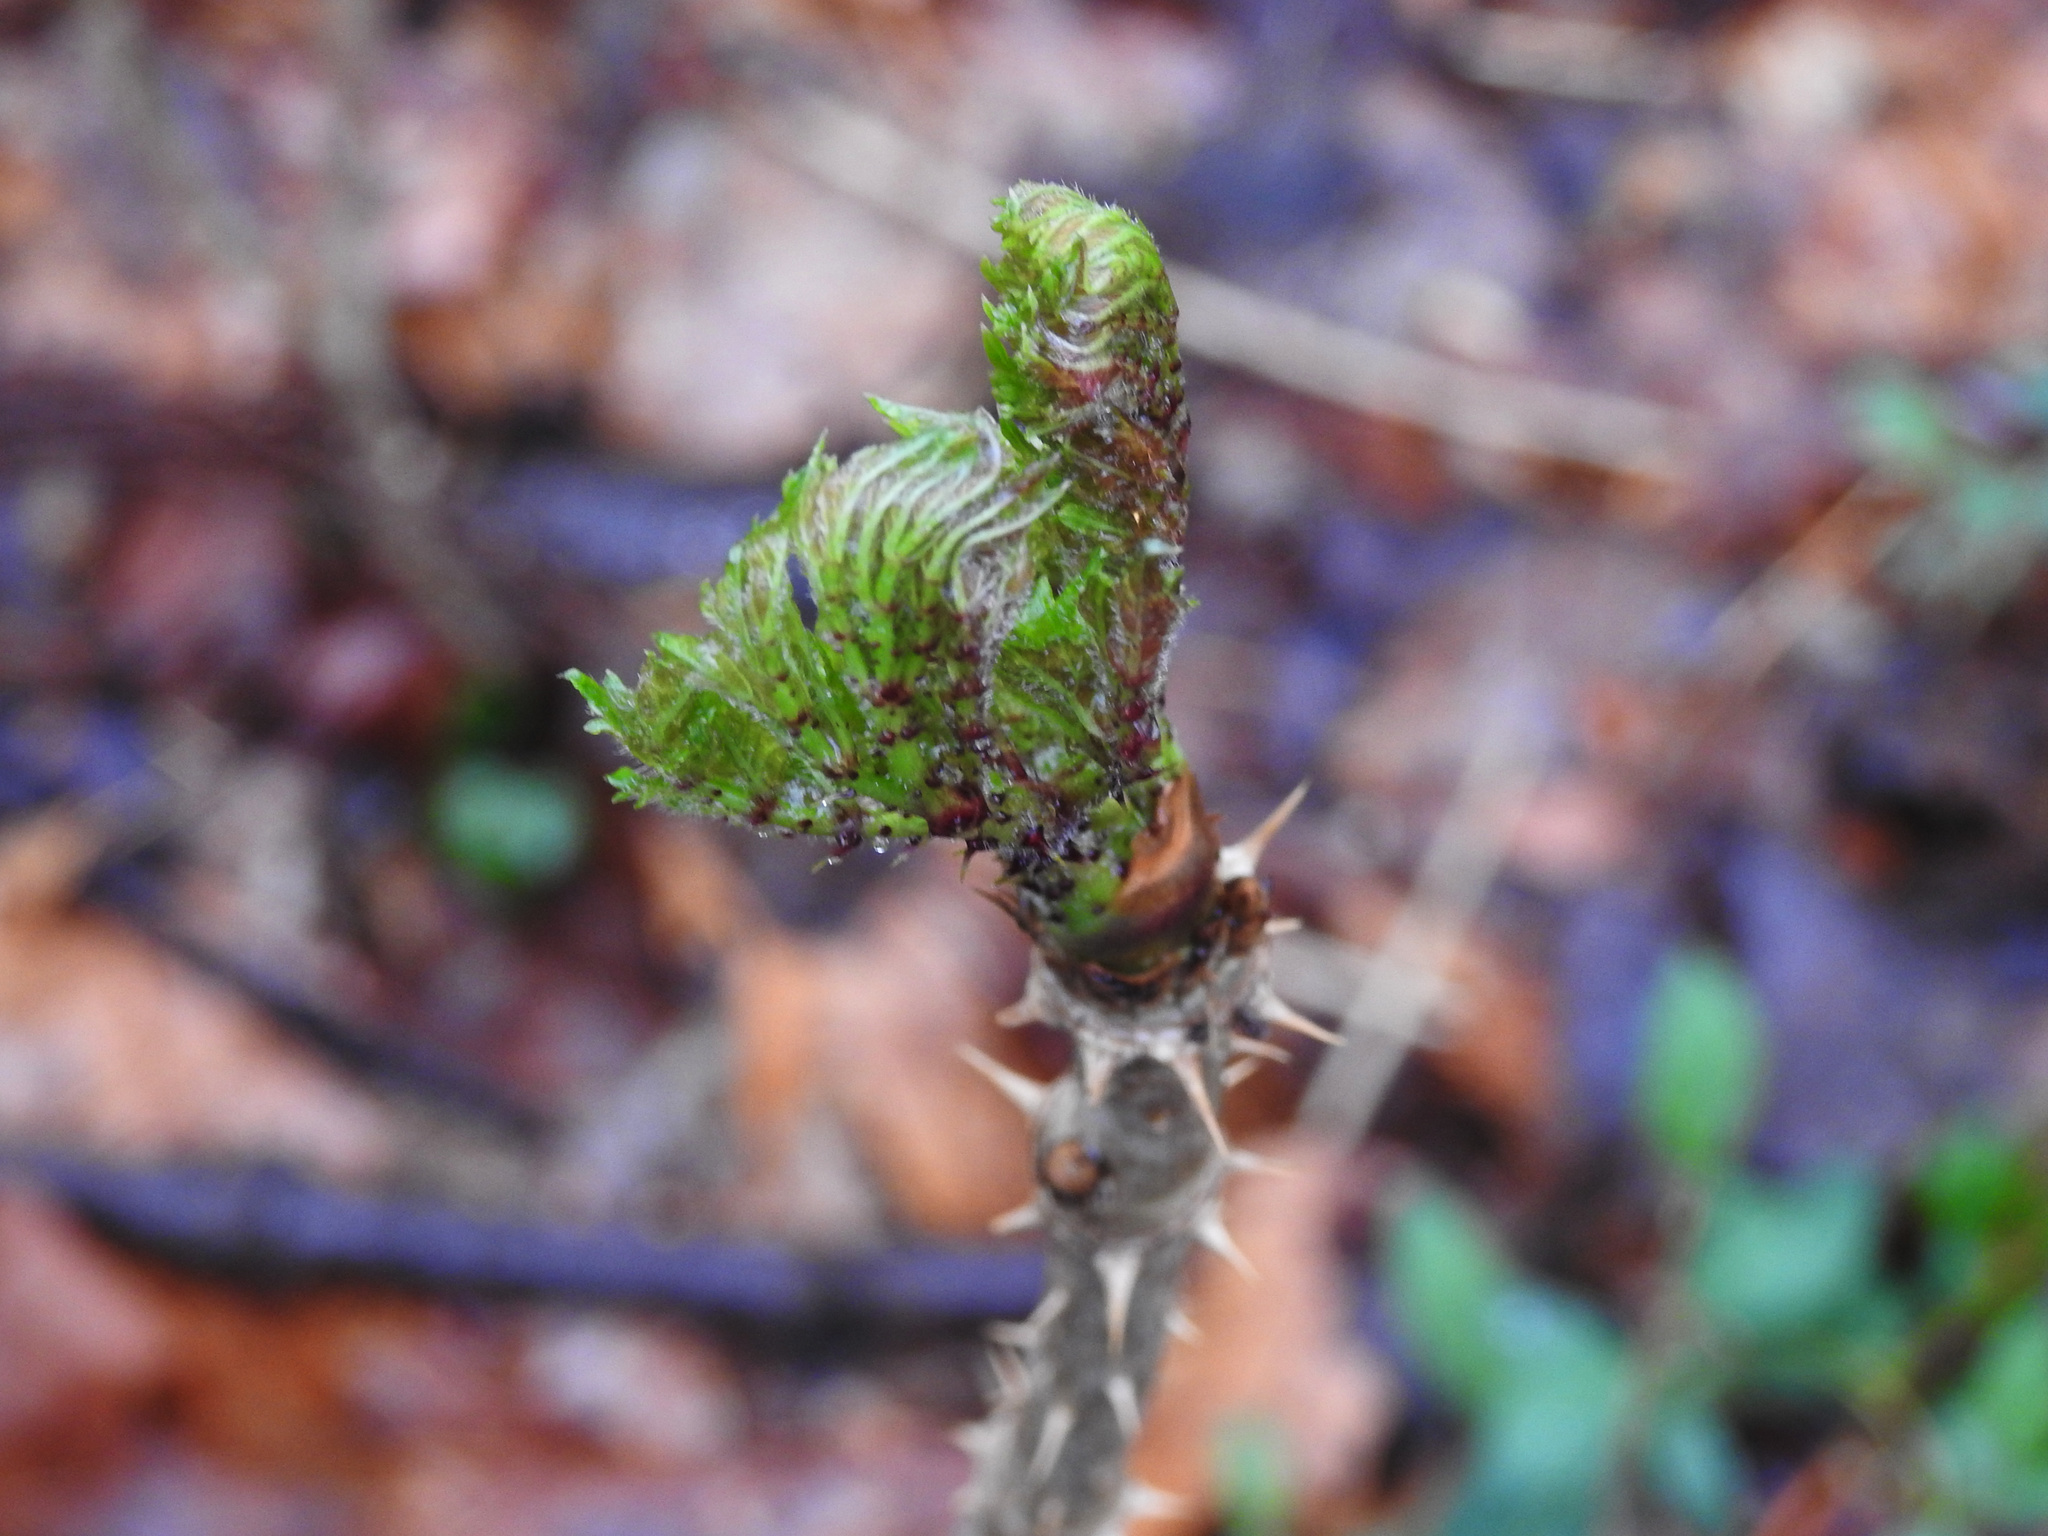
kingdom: Plantae
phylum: Tracheophyta
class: Magnoliopsida
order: Apiales
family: Araliaceae
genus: Aralia
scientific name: Aralia elata
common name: Japanese angelica-tree
